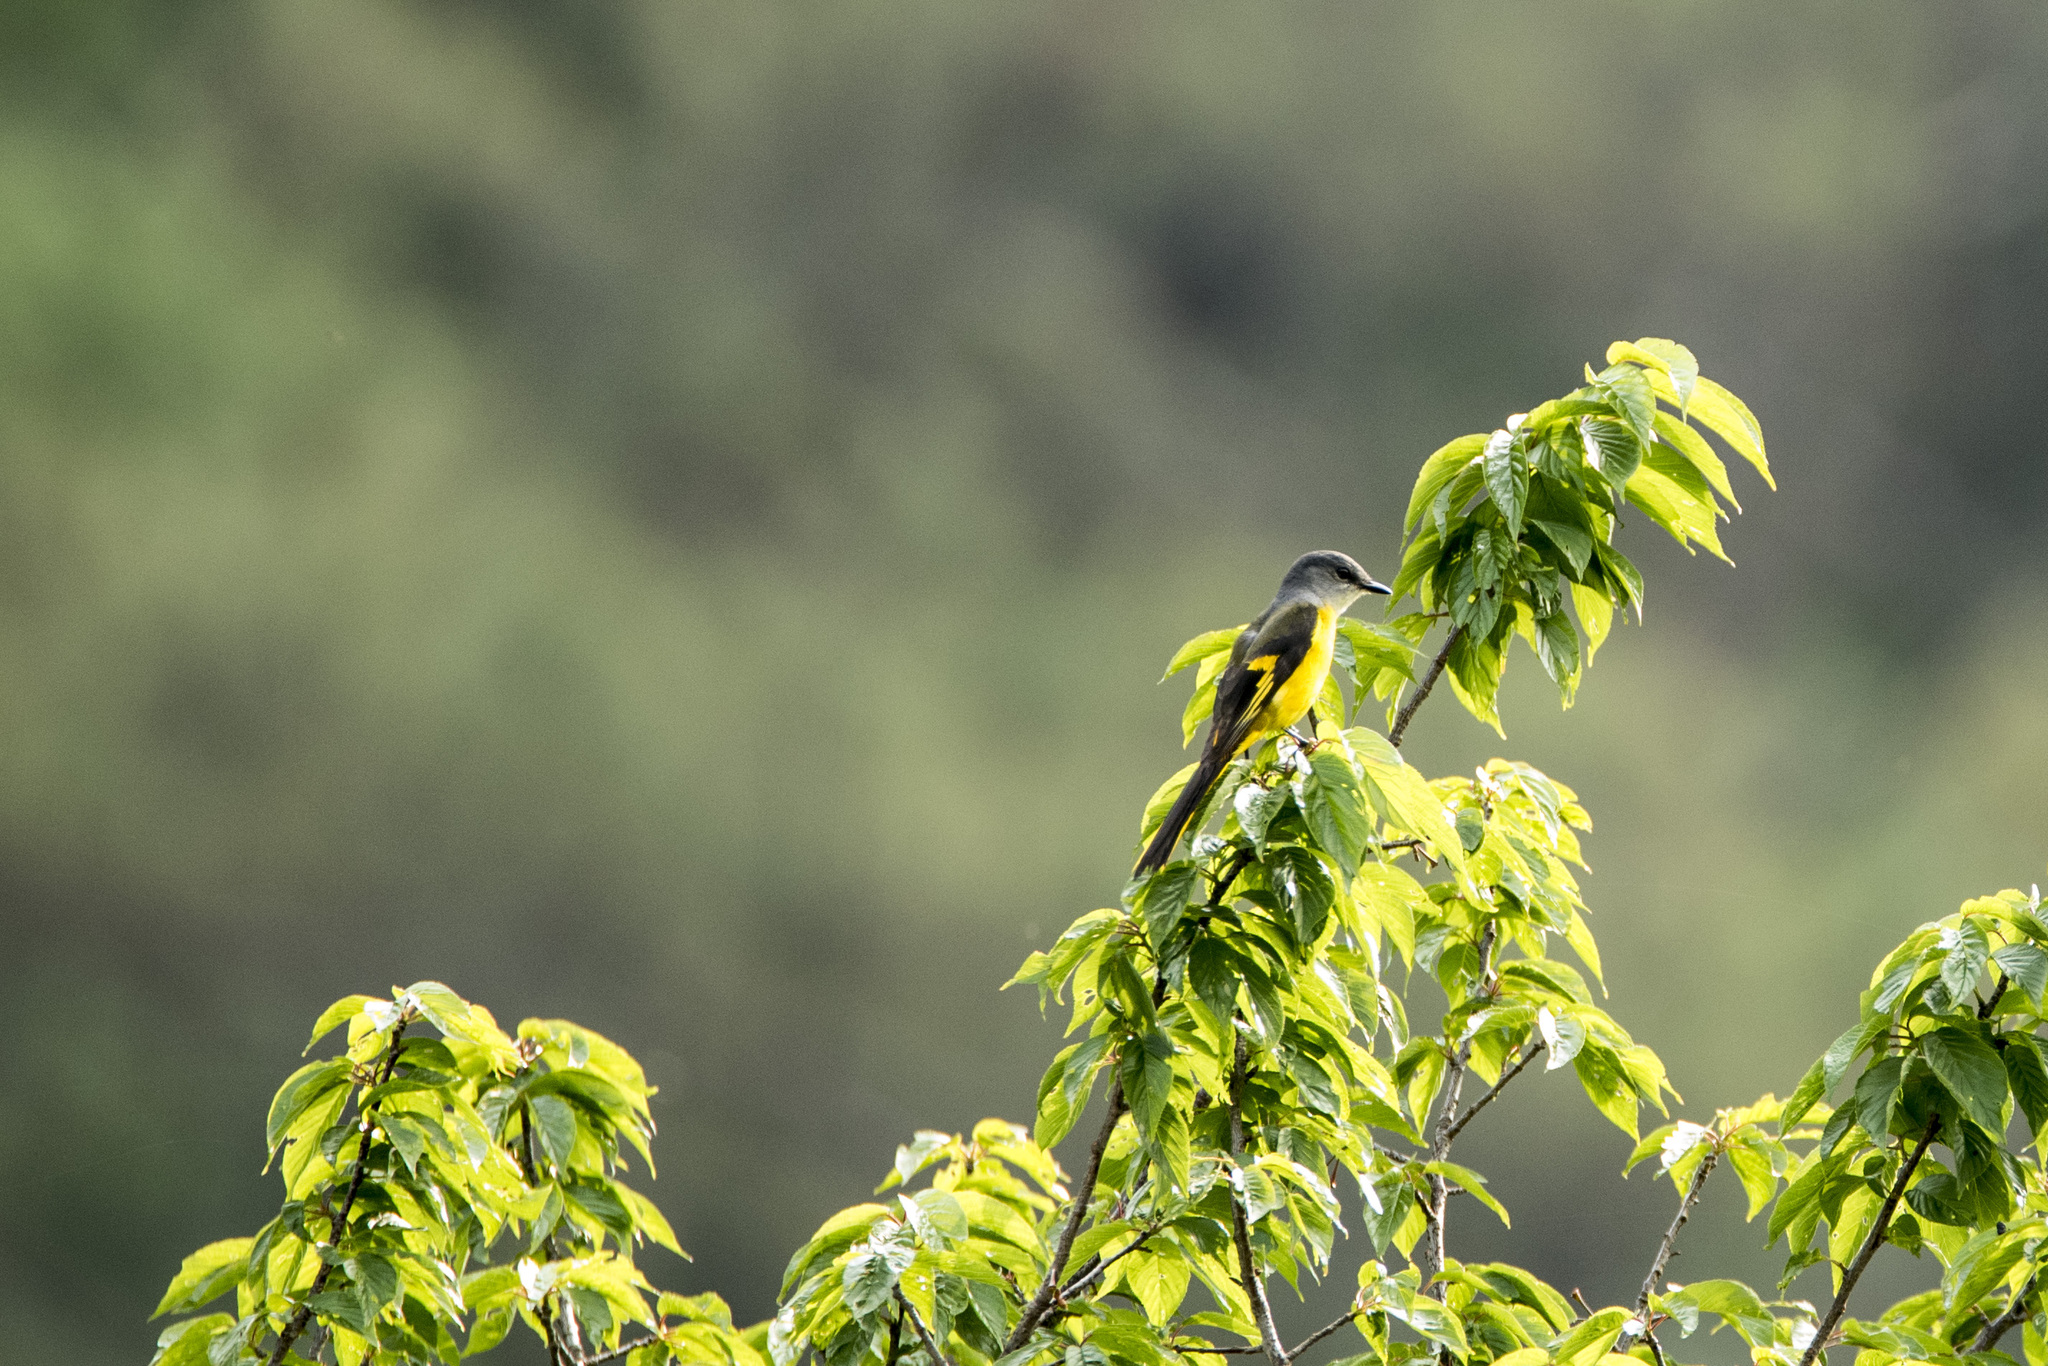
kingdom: Animalia
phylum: Chordata
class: Aves
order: Passeriformes
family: Campephagidae
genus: Pericrocotus
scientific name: Pericrocotus solaris
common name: Grey-chinned minivet
